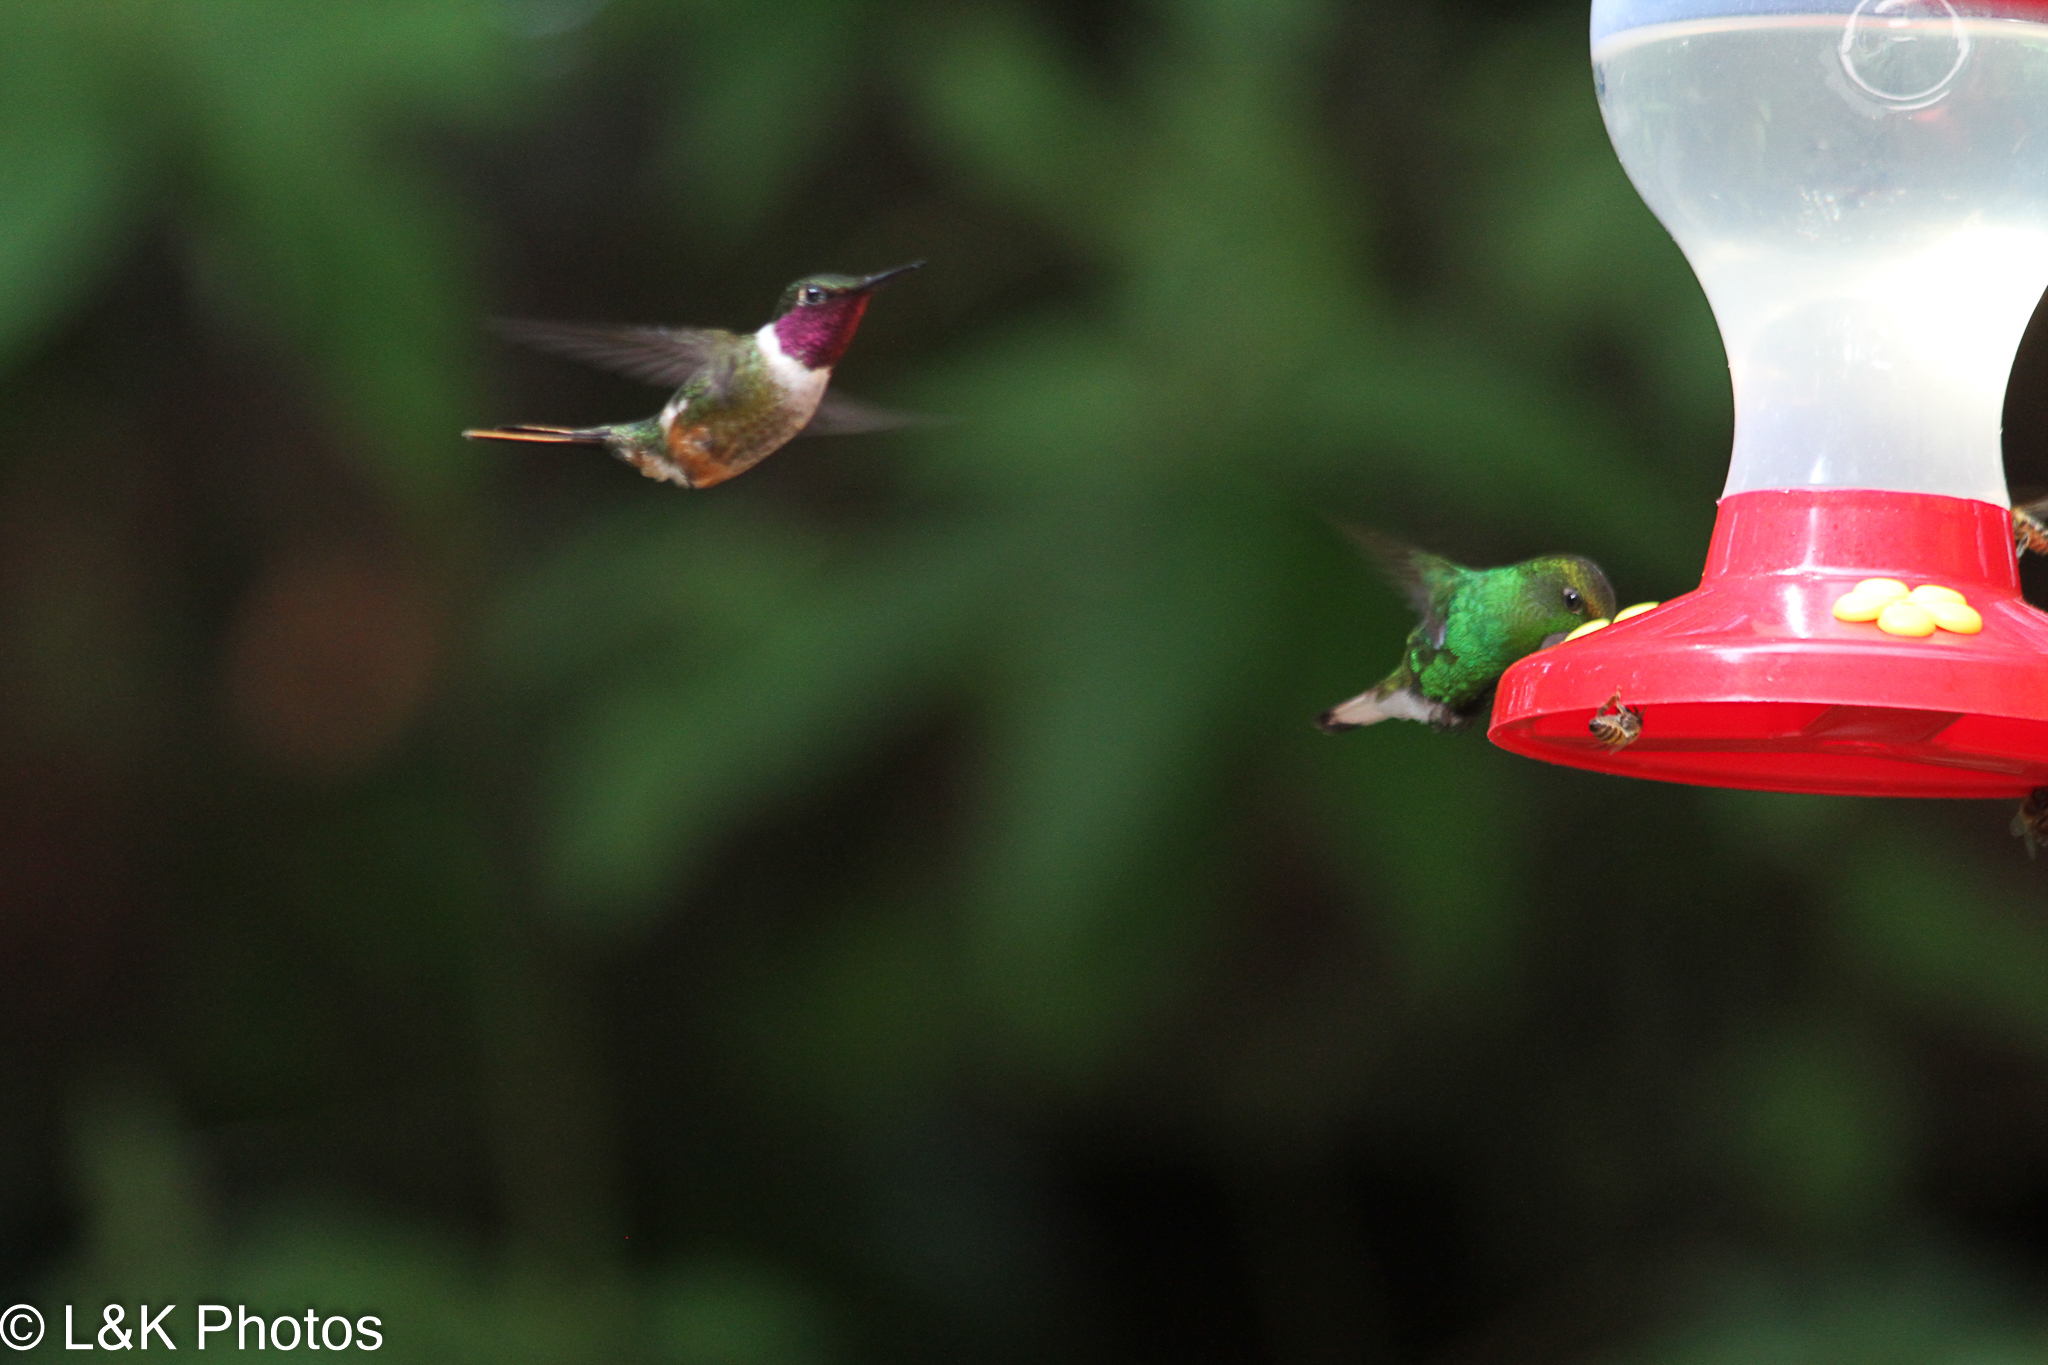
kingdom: Animalia
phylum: Chordata
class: Aves
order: Apodiformes
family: Trochilidae
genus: Calliphlox
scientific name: Calliphlox bryantae
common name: Magenta-throated woodstar
